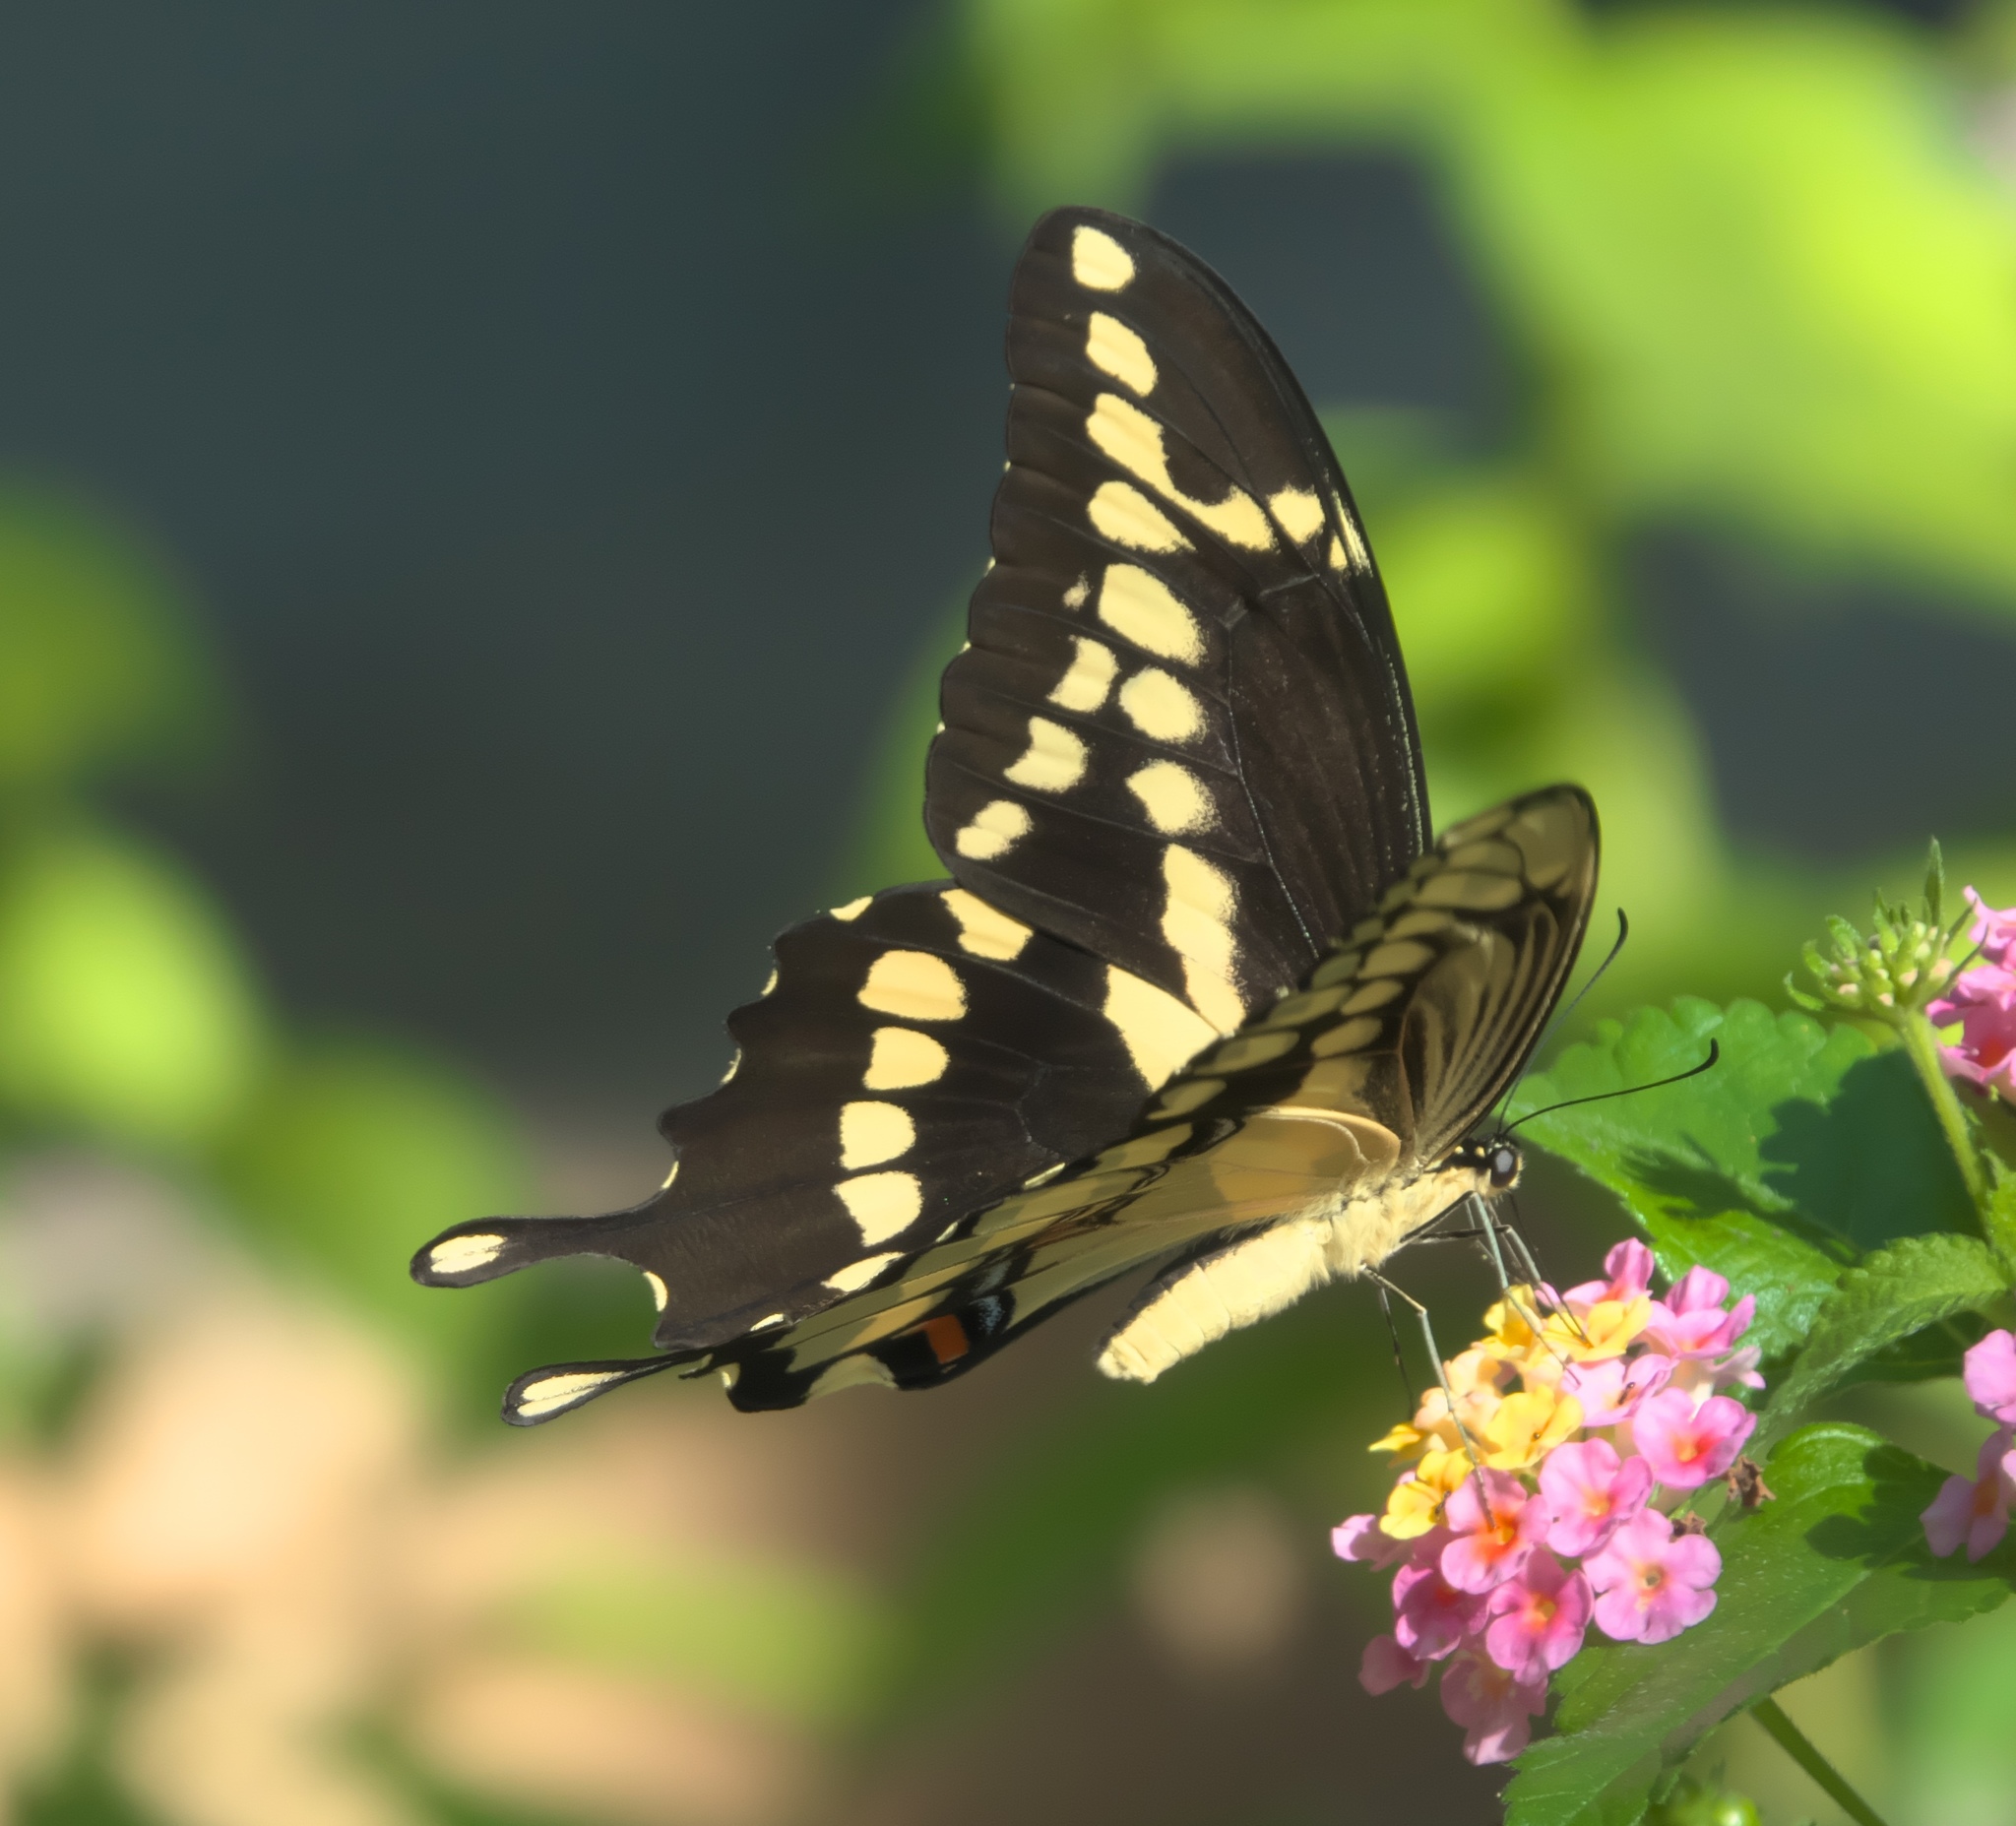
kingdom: Animalia
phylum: Arthropoda
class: Insecta
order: Lepidoptera
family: Papilionidae
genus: Papilio
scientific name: Papilio cresphontes
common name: Giant swallowtail
